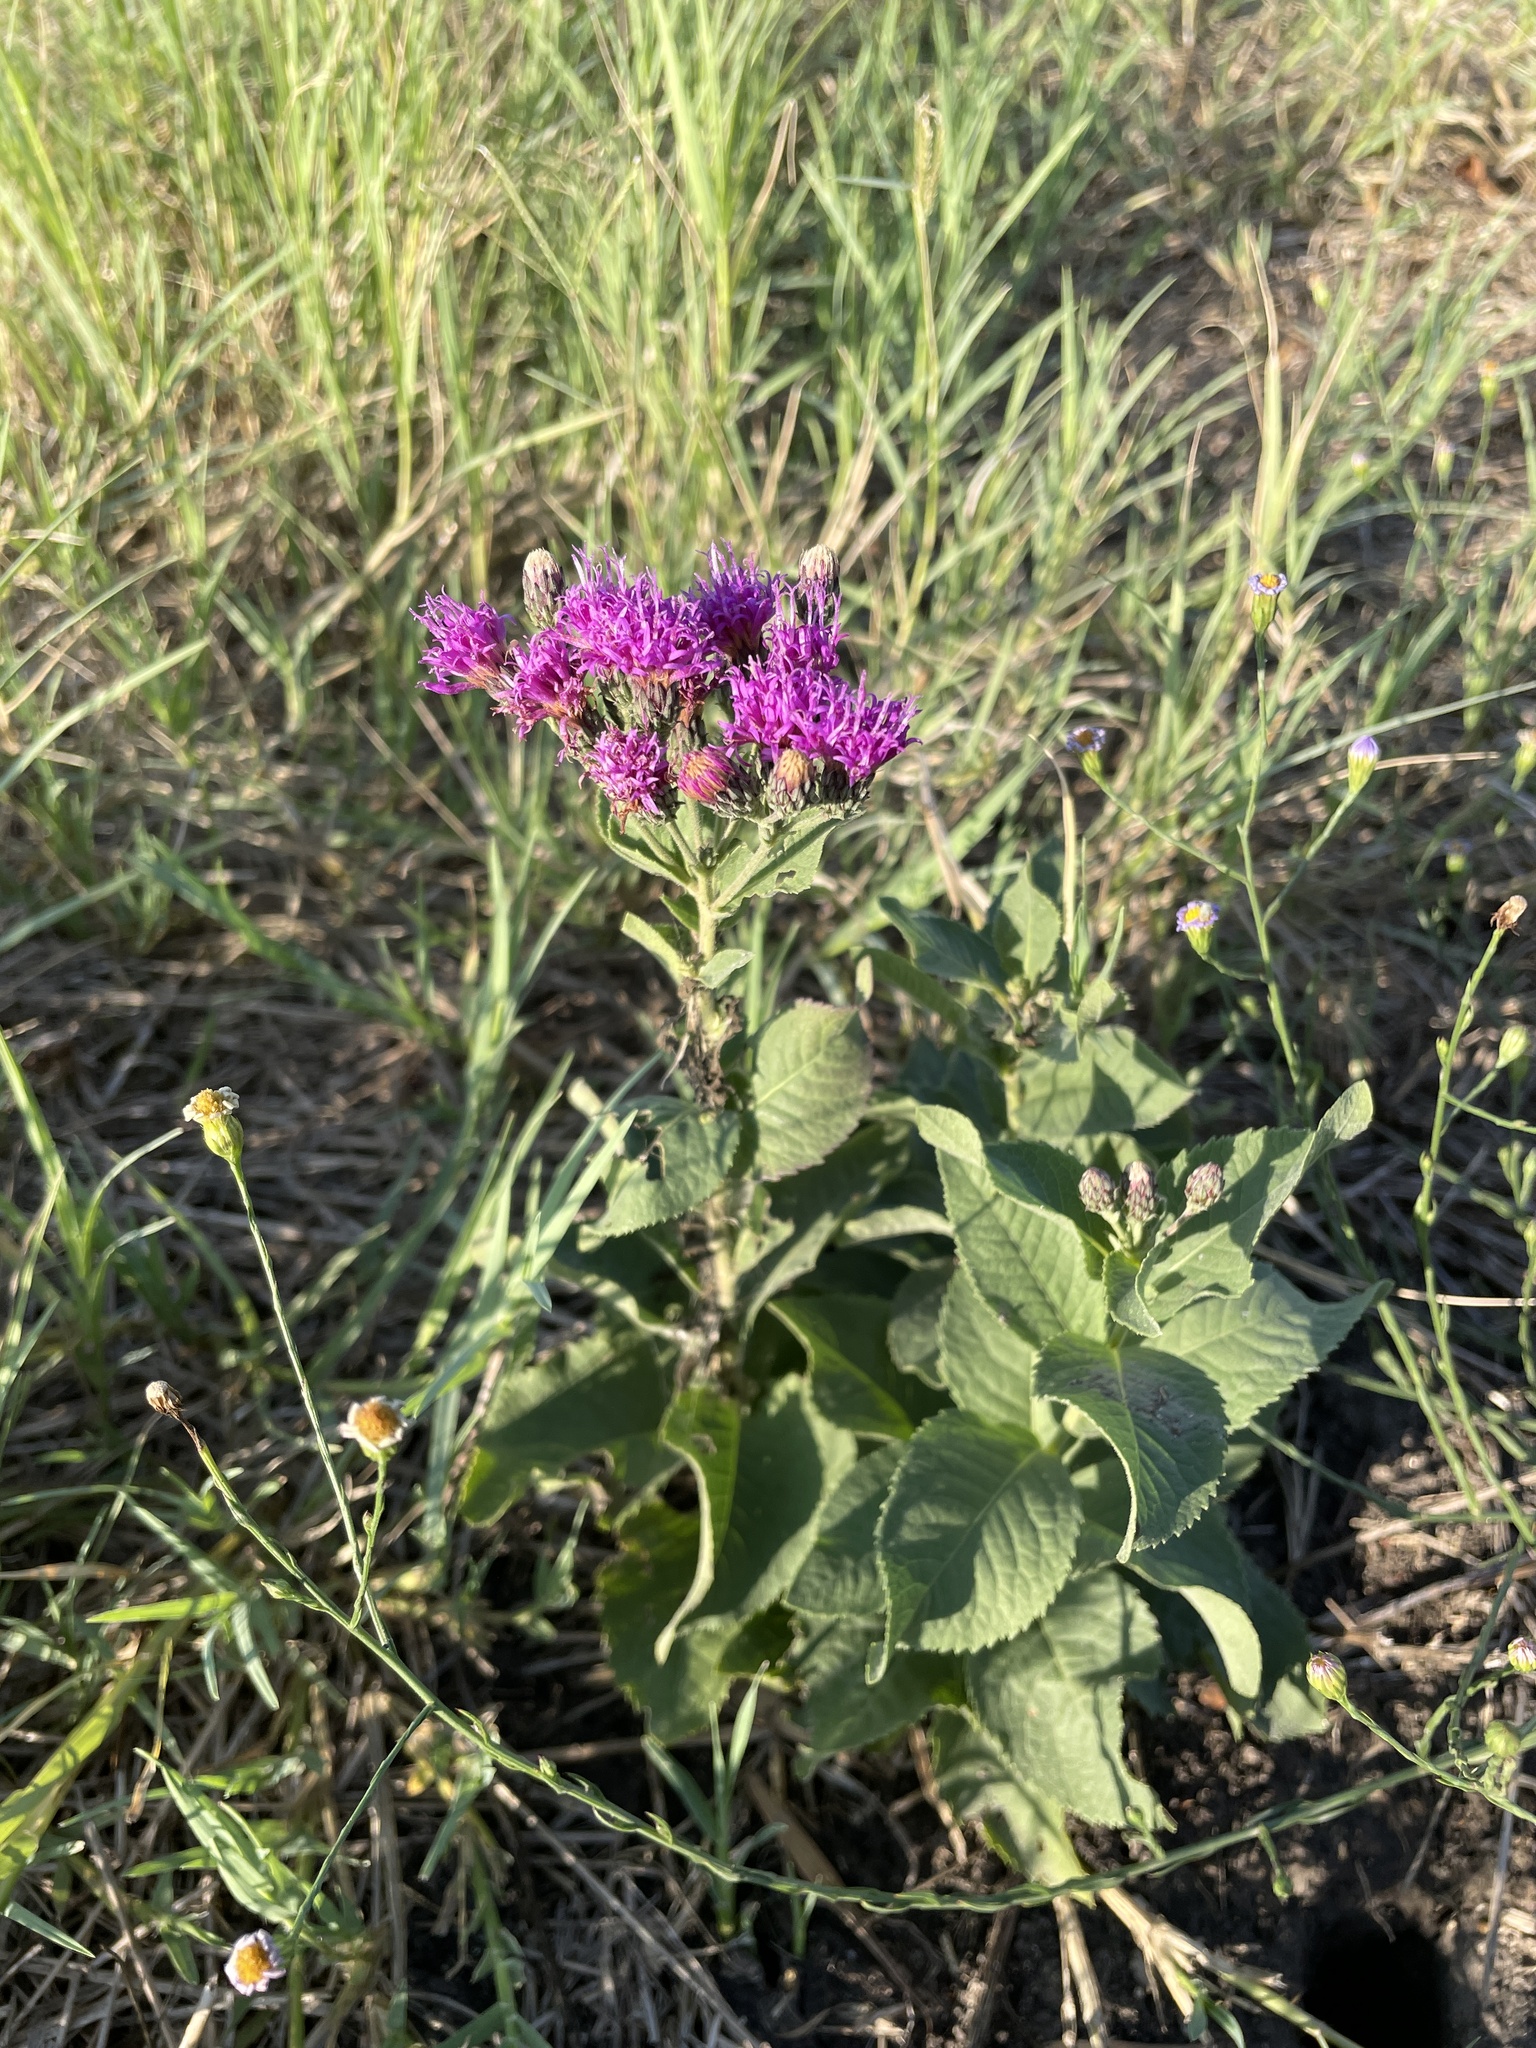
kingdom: Plantae
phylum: Tracheophyta
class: Magnoliopsida
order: Asterales
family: Asteraceae
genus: Vernonia
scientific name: Vernonia baldwinii
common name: Western ironweed
